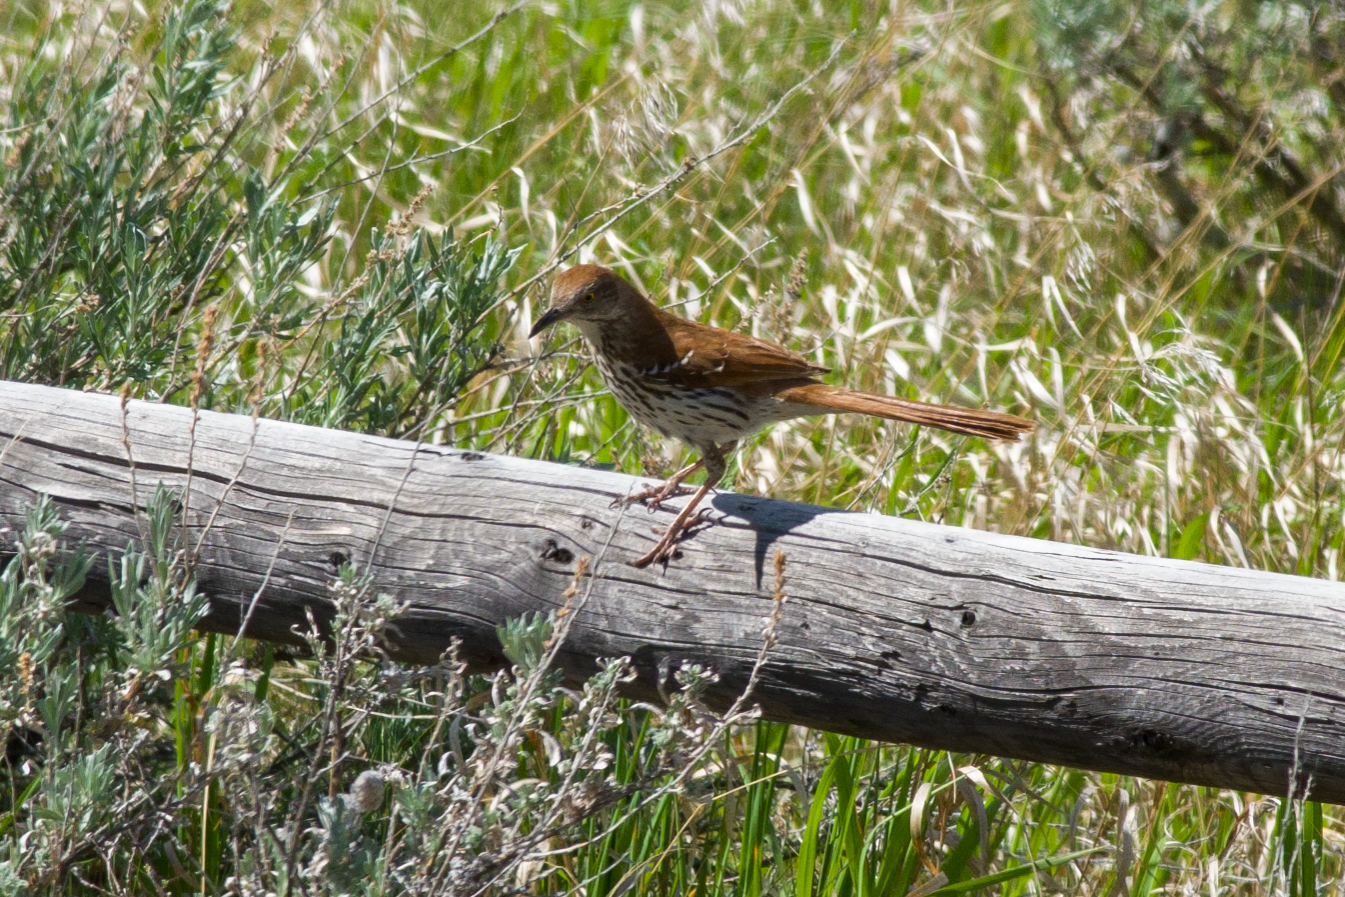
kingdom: Animalia
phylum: Chordata
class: Aves
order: Passeriformes
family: Mimidae
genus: Toxostoma
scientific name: Toxostoma rufum
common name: Brown thrasher
